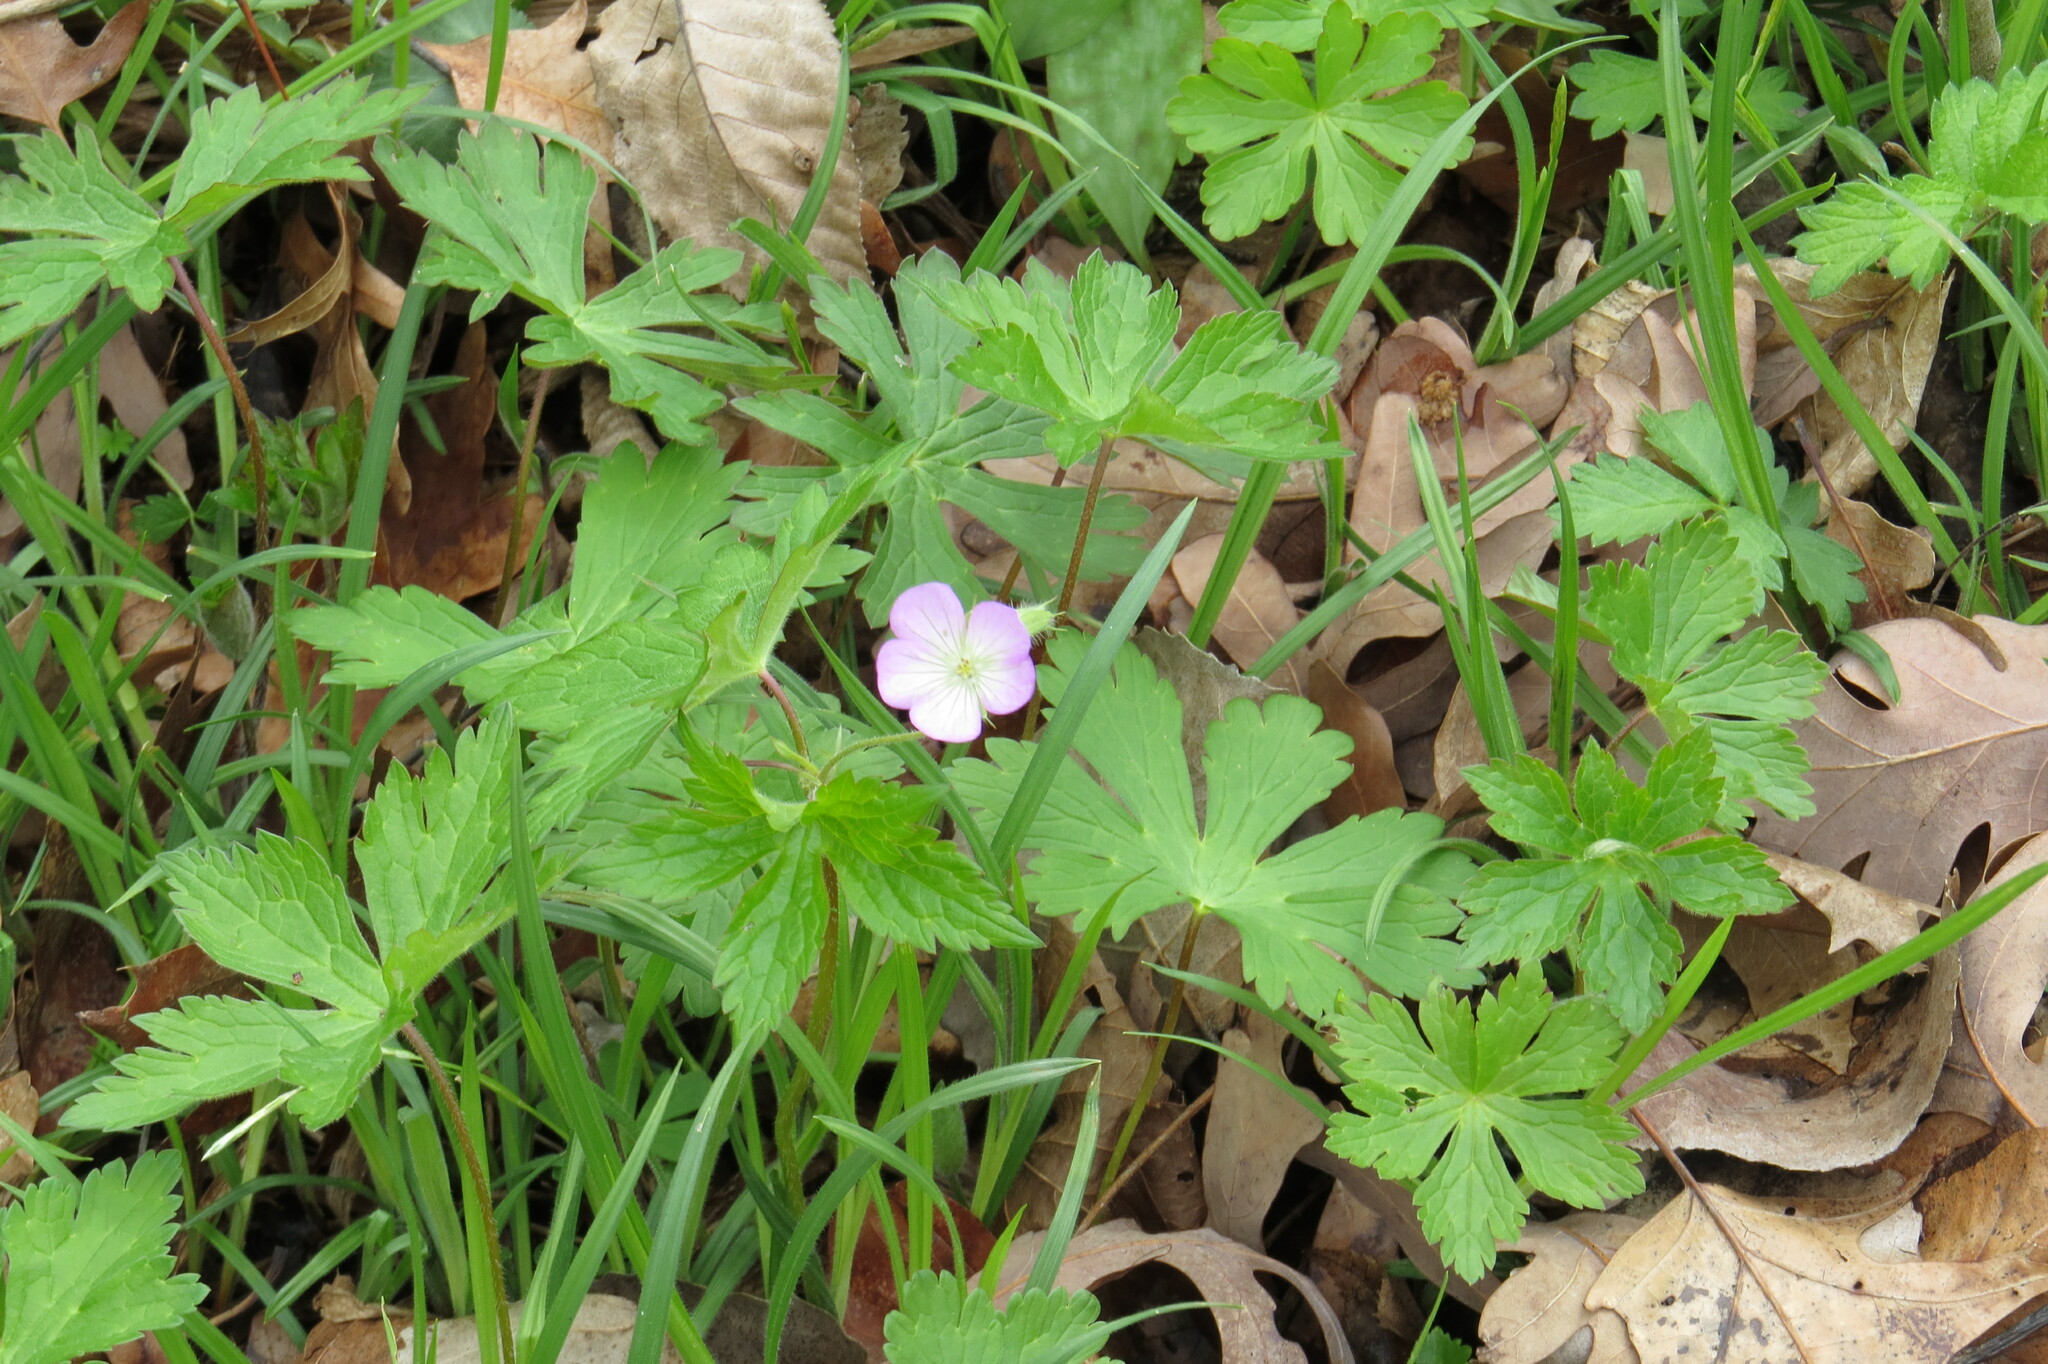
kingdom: Plantae
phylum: Tracheophyta
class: Magnoliopsida
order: Geraniales
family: Geraniaceae
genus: Geranium
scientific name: Geranium maculatum
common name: Spotted geranium
